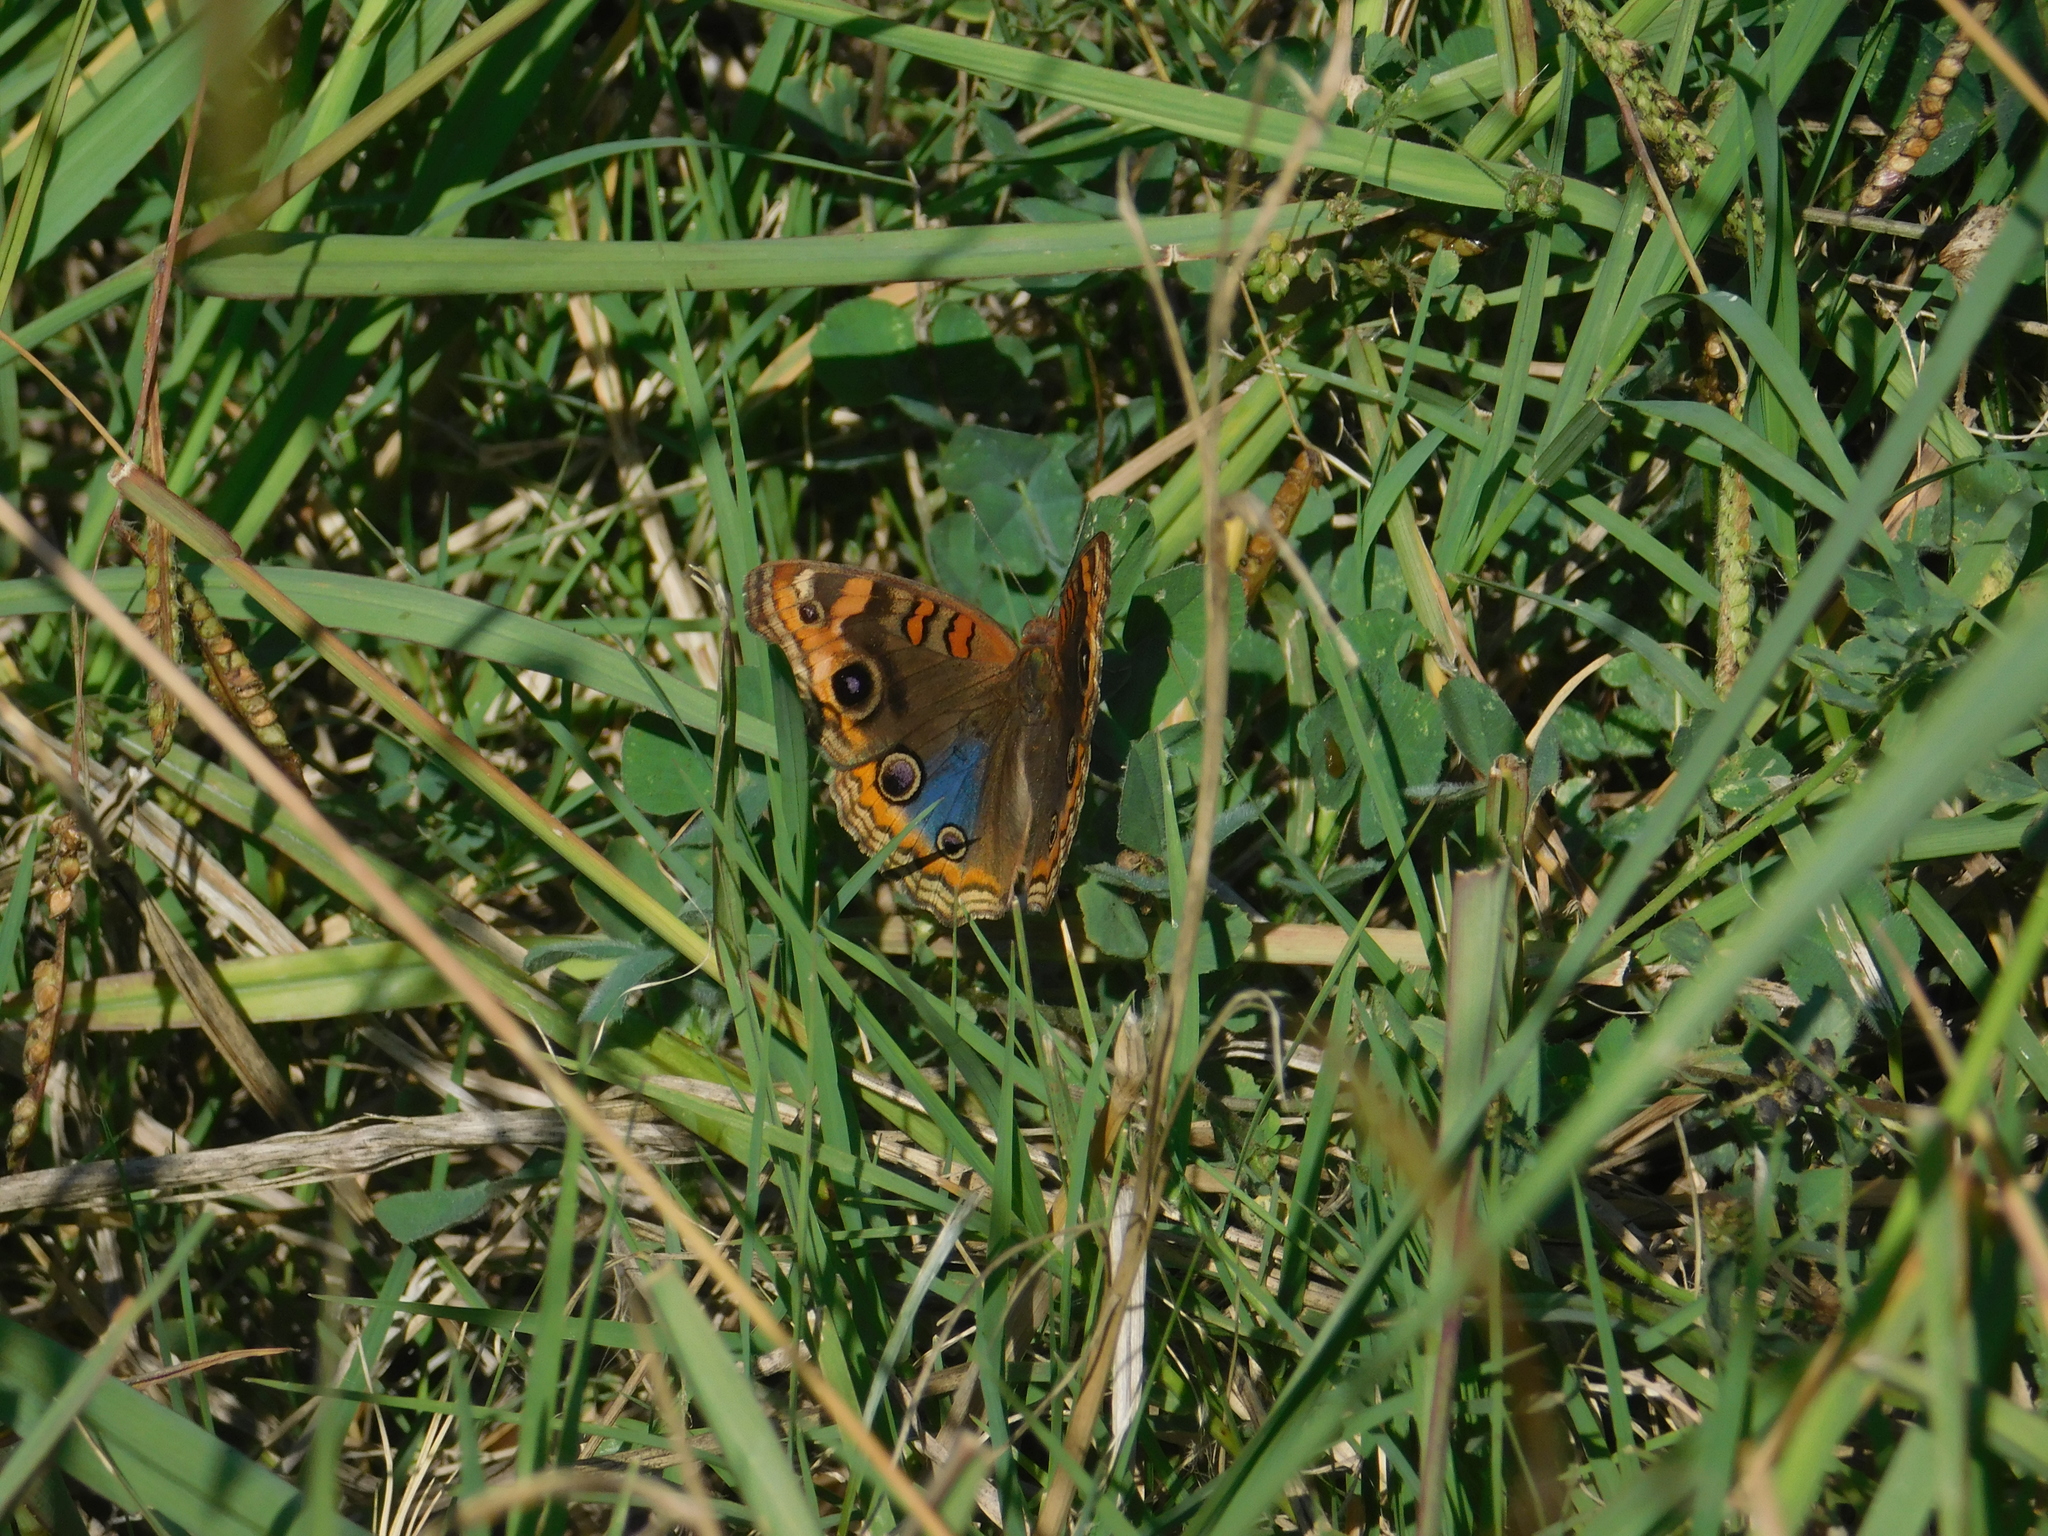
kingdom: Animalia
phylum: Arthropoda
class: Insecta
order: Lepidoptera
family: Nymphalidae
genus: Junonia
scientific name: Junonia lavinia
